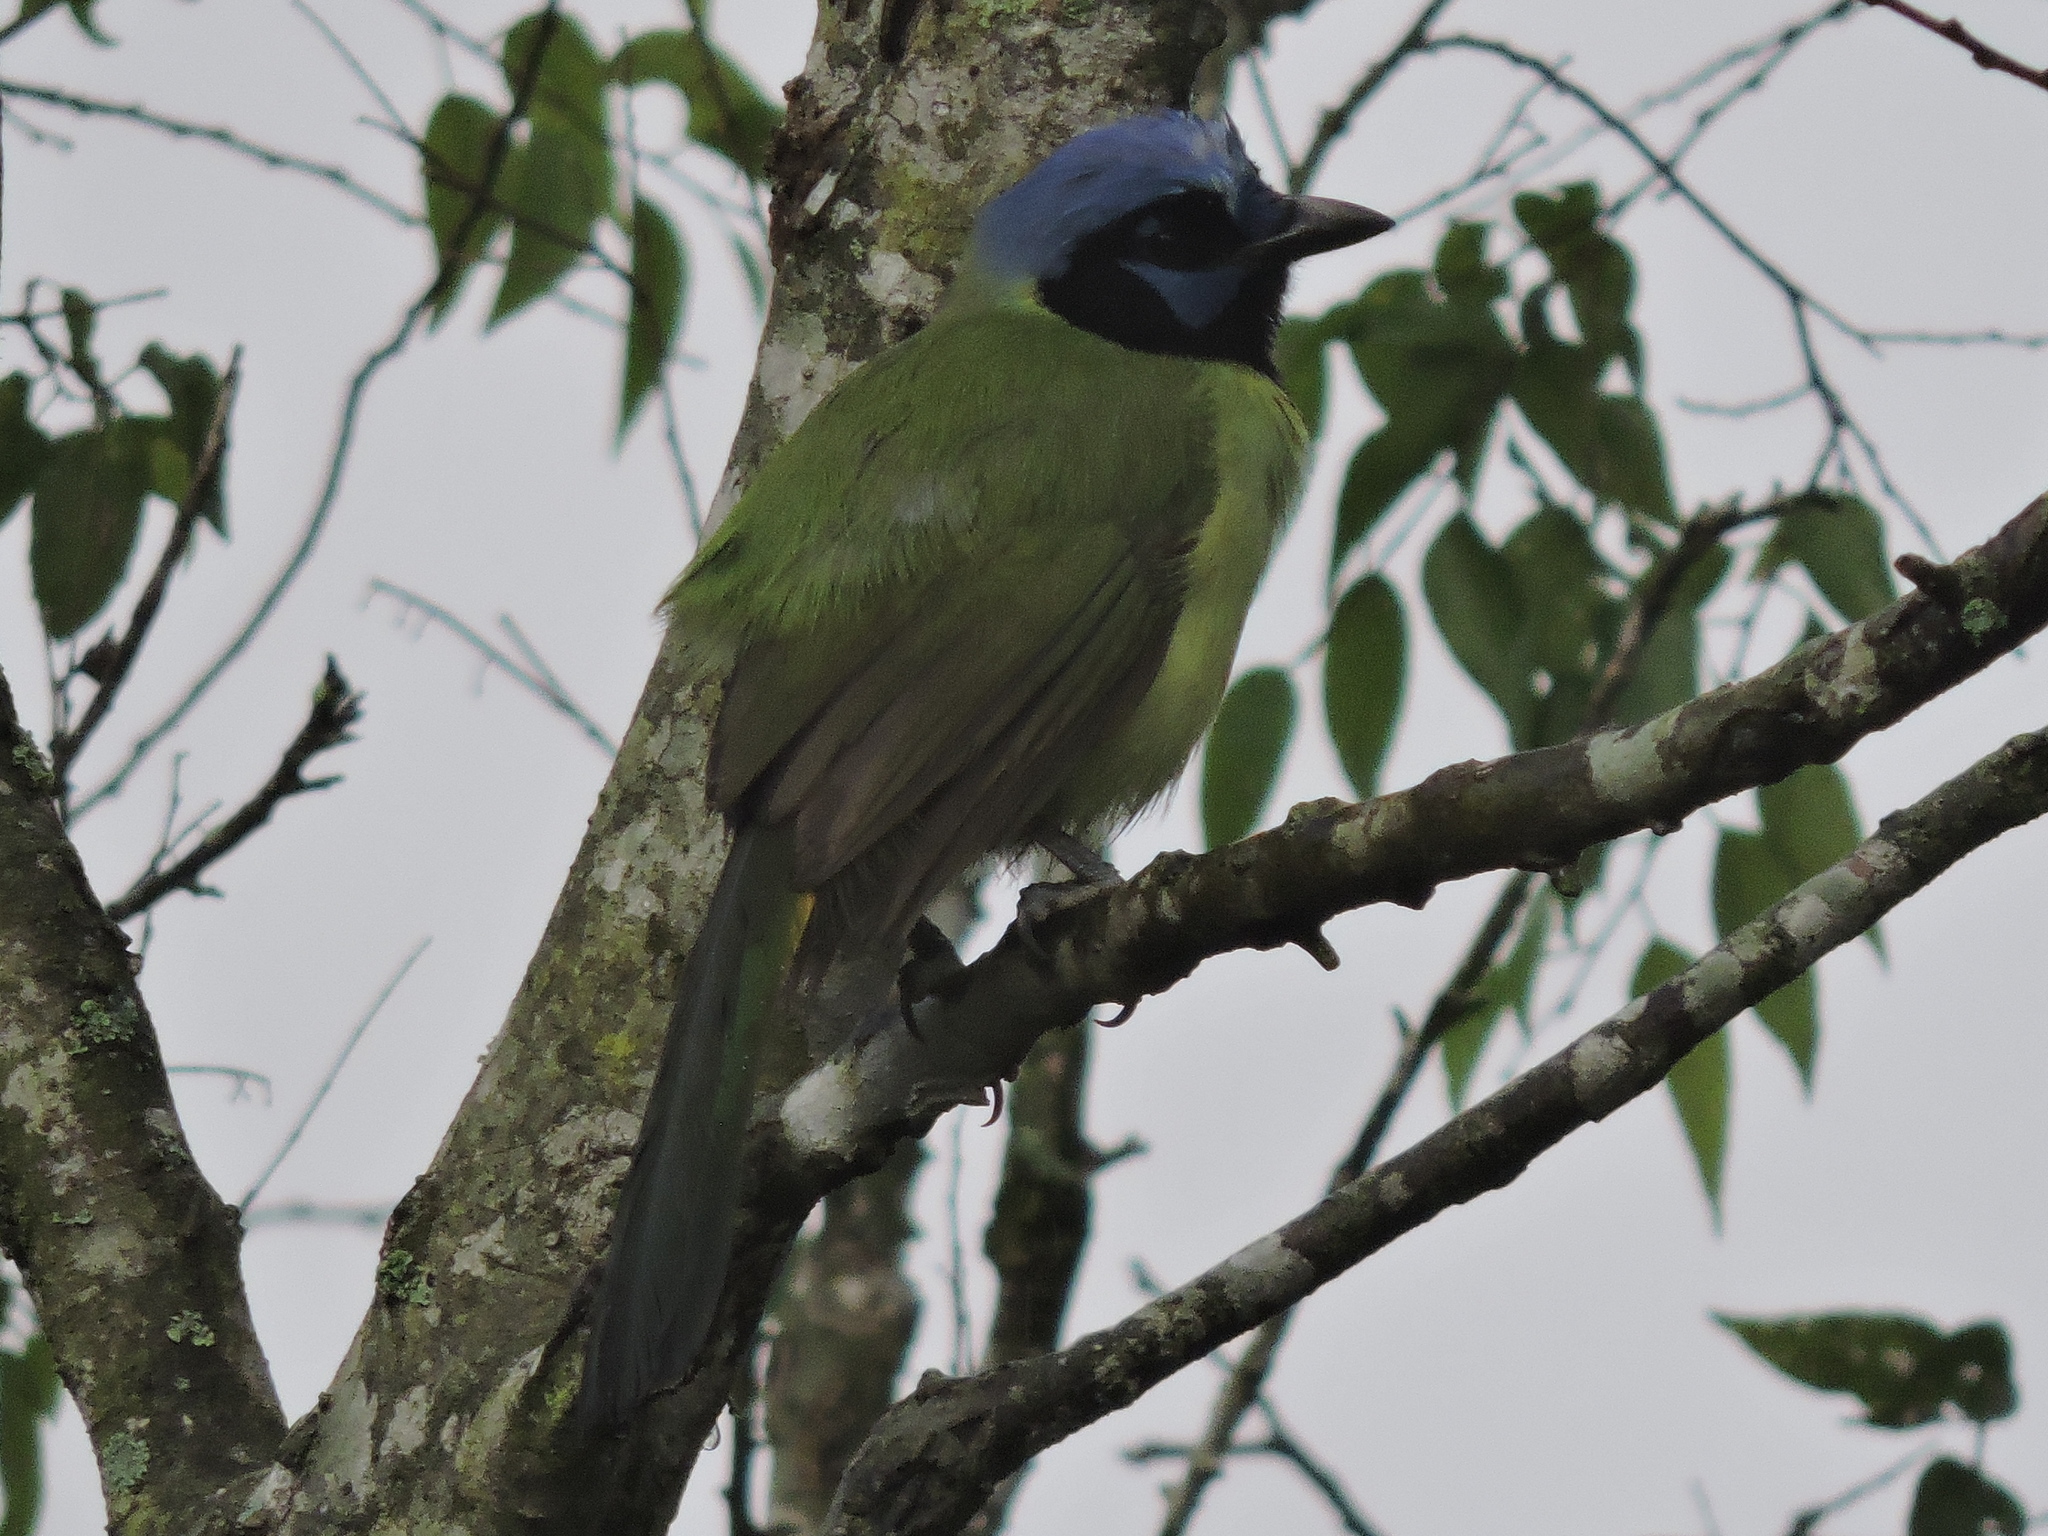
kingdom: Animalia
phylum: Chordata
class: Aves
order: Passeriformes
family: Corvidae
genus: Cyanocorax
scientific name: Cyanocorax yncas
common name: Green jay
